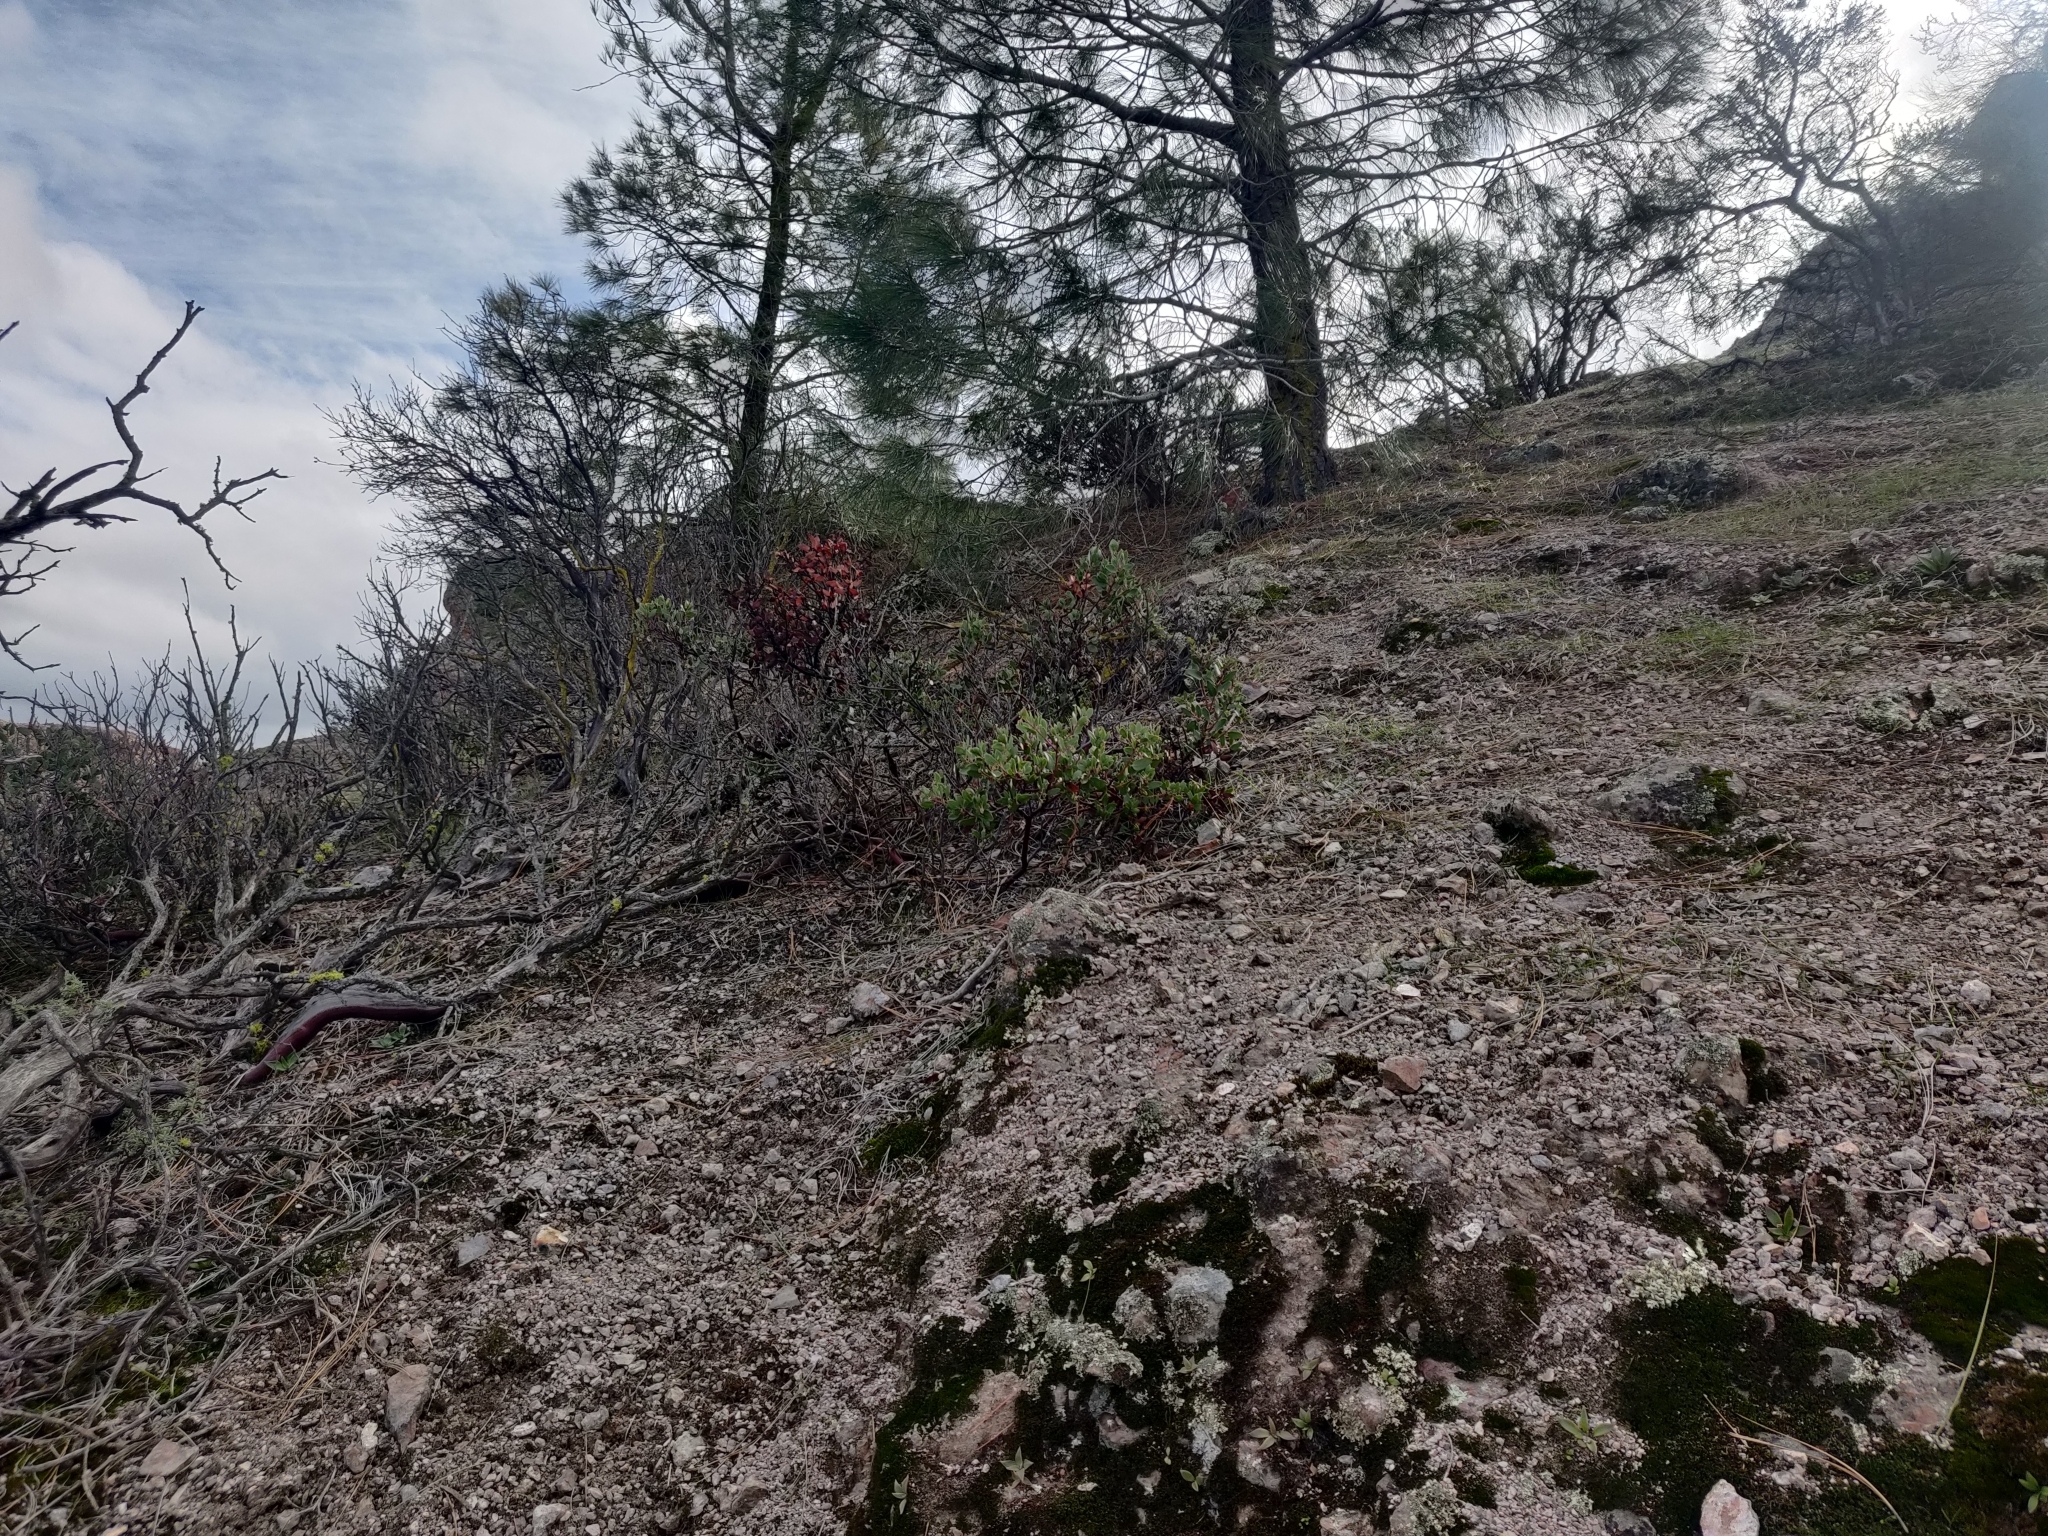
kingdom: Plantae
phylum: Tracheophyta
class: Magnoliopsida
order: Ericales
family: Ericaceae
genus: Arctostaphylos
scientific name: Arctostaphylos pungens
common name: Mexican manzanita
